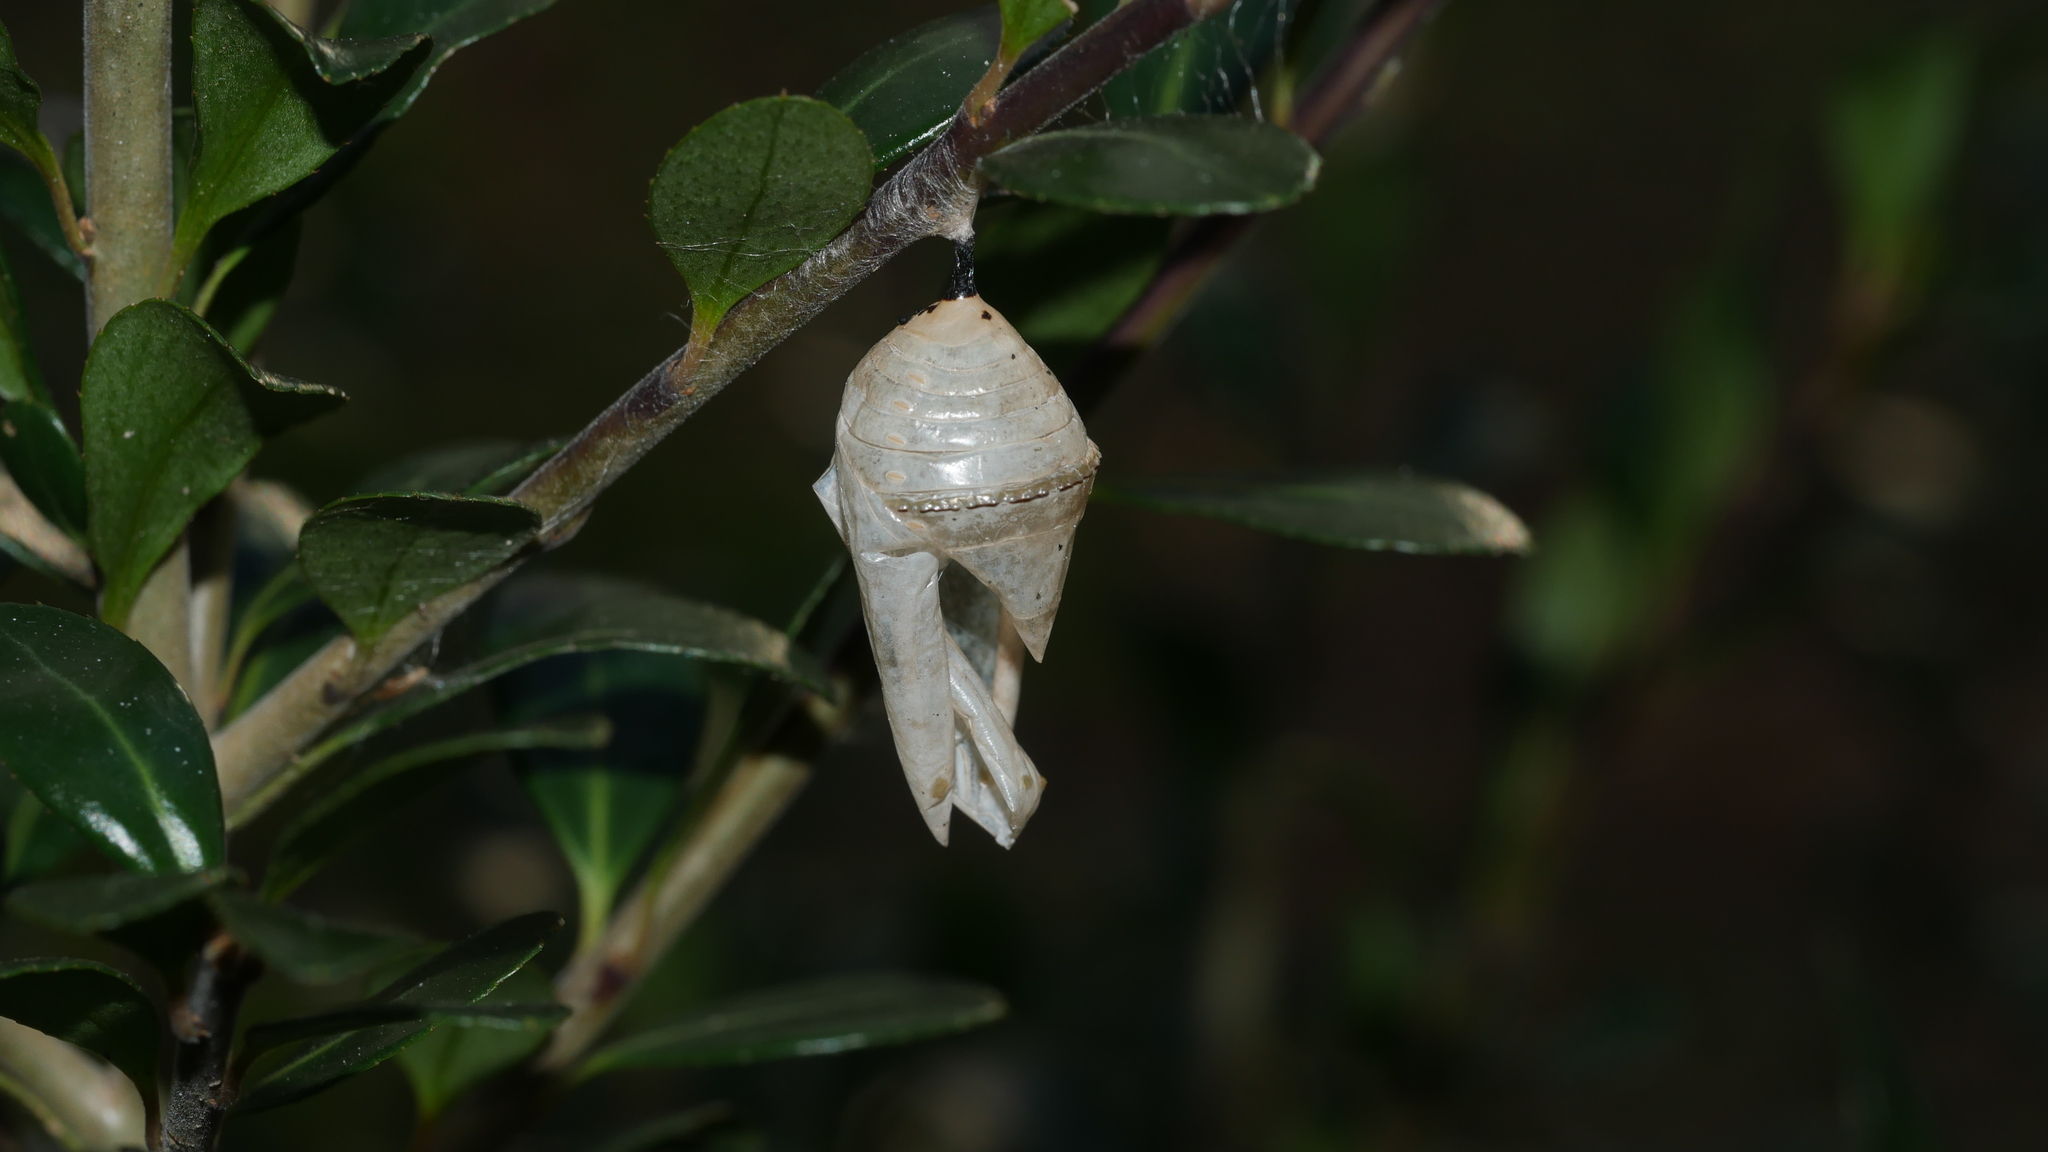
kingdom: Animalia
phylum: Arthropoda
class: Insecta
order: Lepidoptera
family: Nymphalidae
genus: Danaus
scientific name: Danaus plexippus
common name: Monarch
